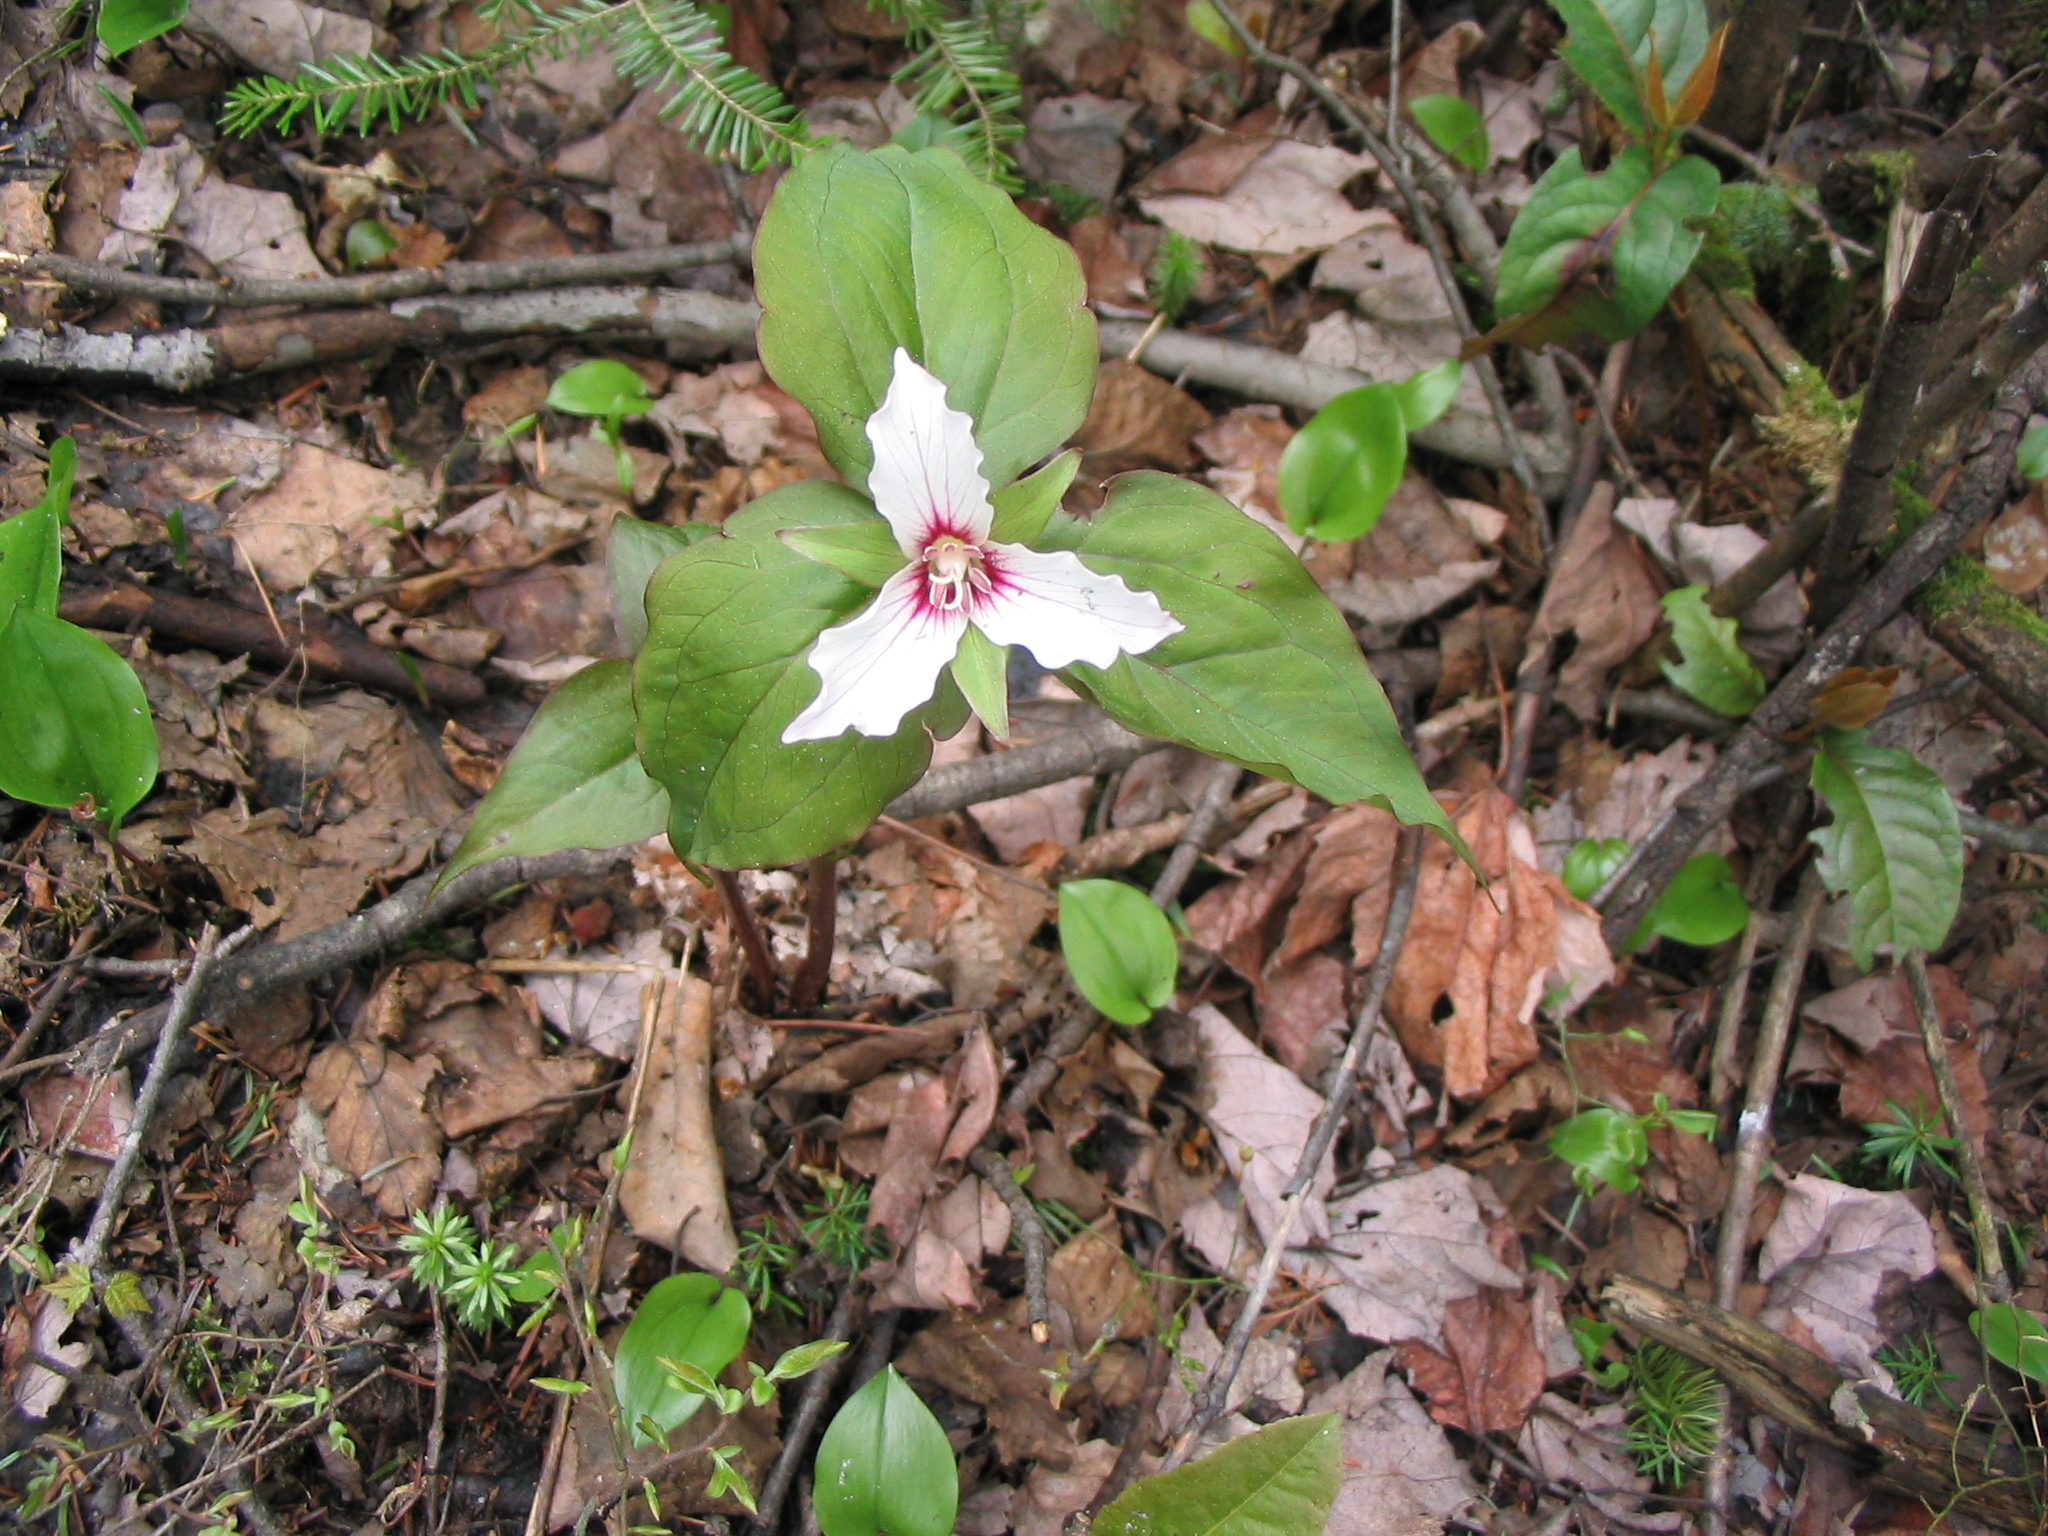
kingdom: Plantae
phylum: Tracheophyta
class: Liliopsida
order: Liliales
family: Melanthiaceae
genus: Trillium
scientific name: Trillium undulatum
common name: Paint trillium
